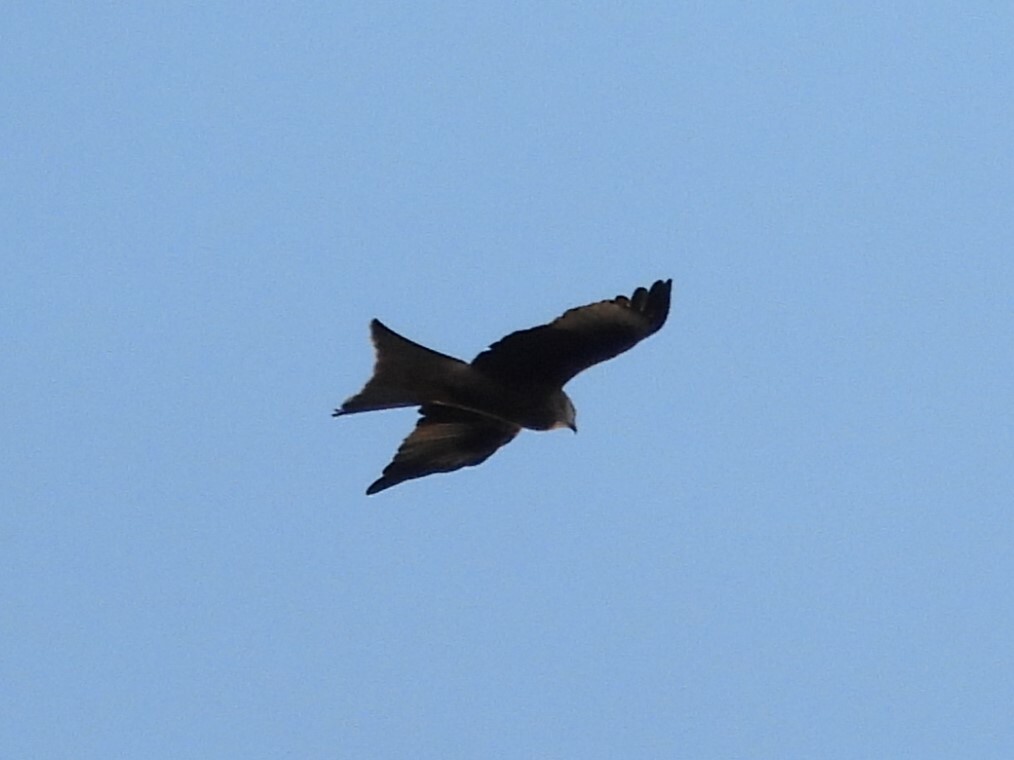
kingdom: Animalia
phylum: Chordata
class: Aves
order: Accipitriformes
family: Accipitridae
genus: Milvus
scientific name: Milvus milvus
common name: Red kite
